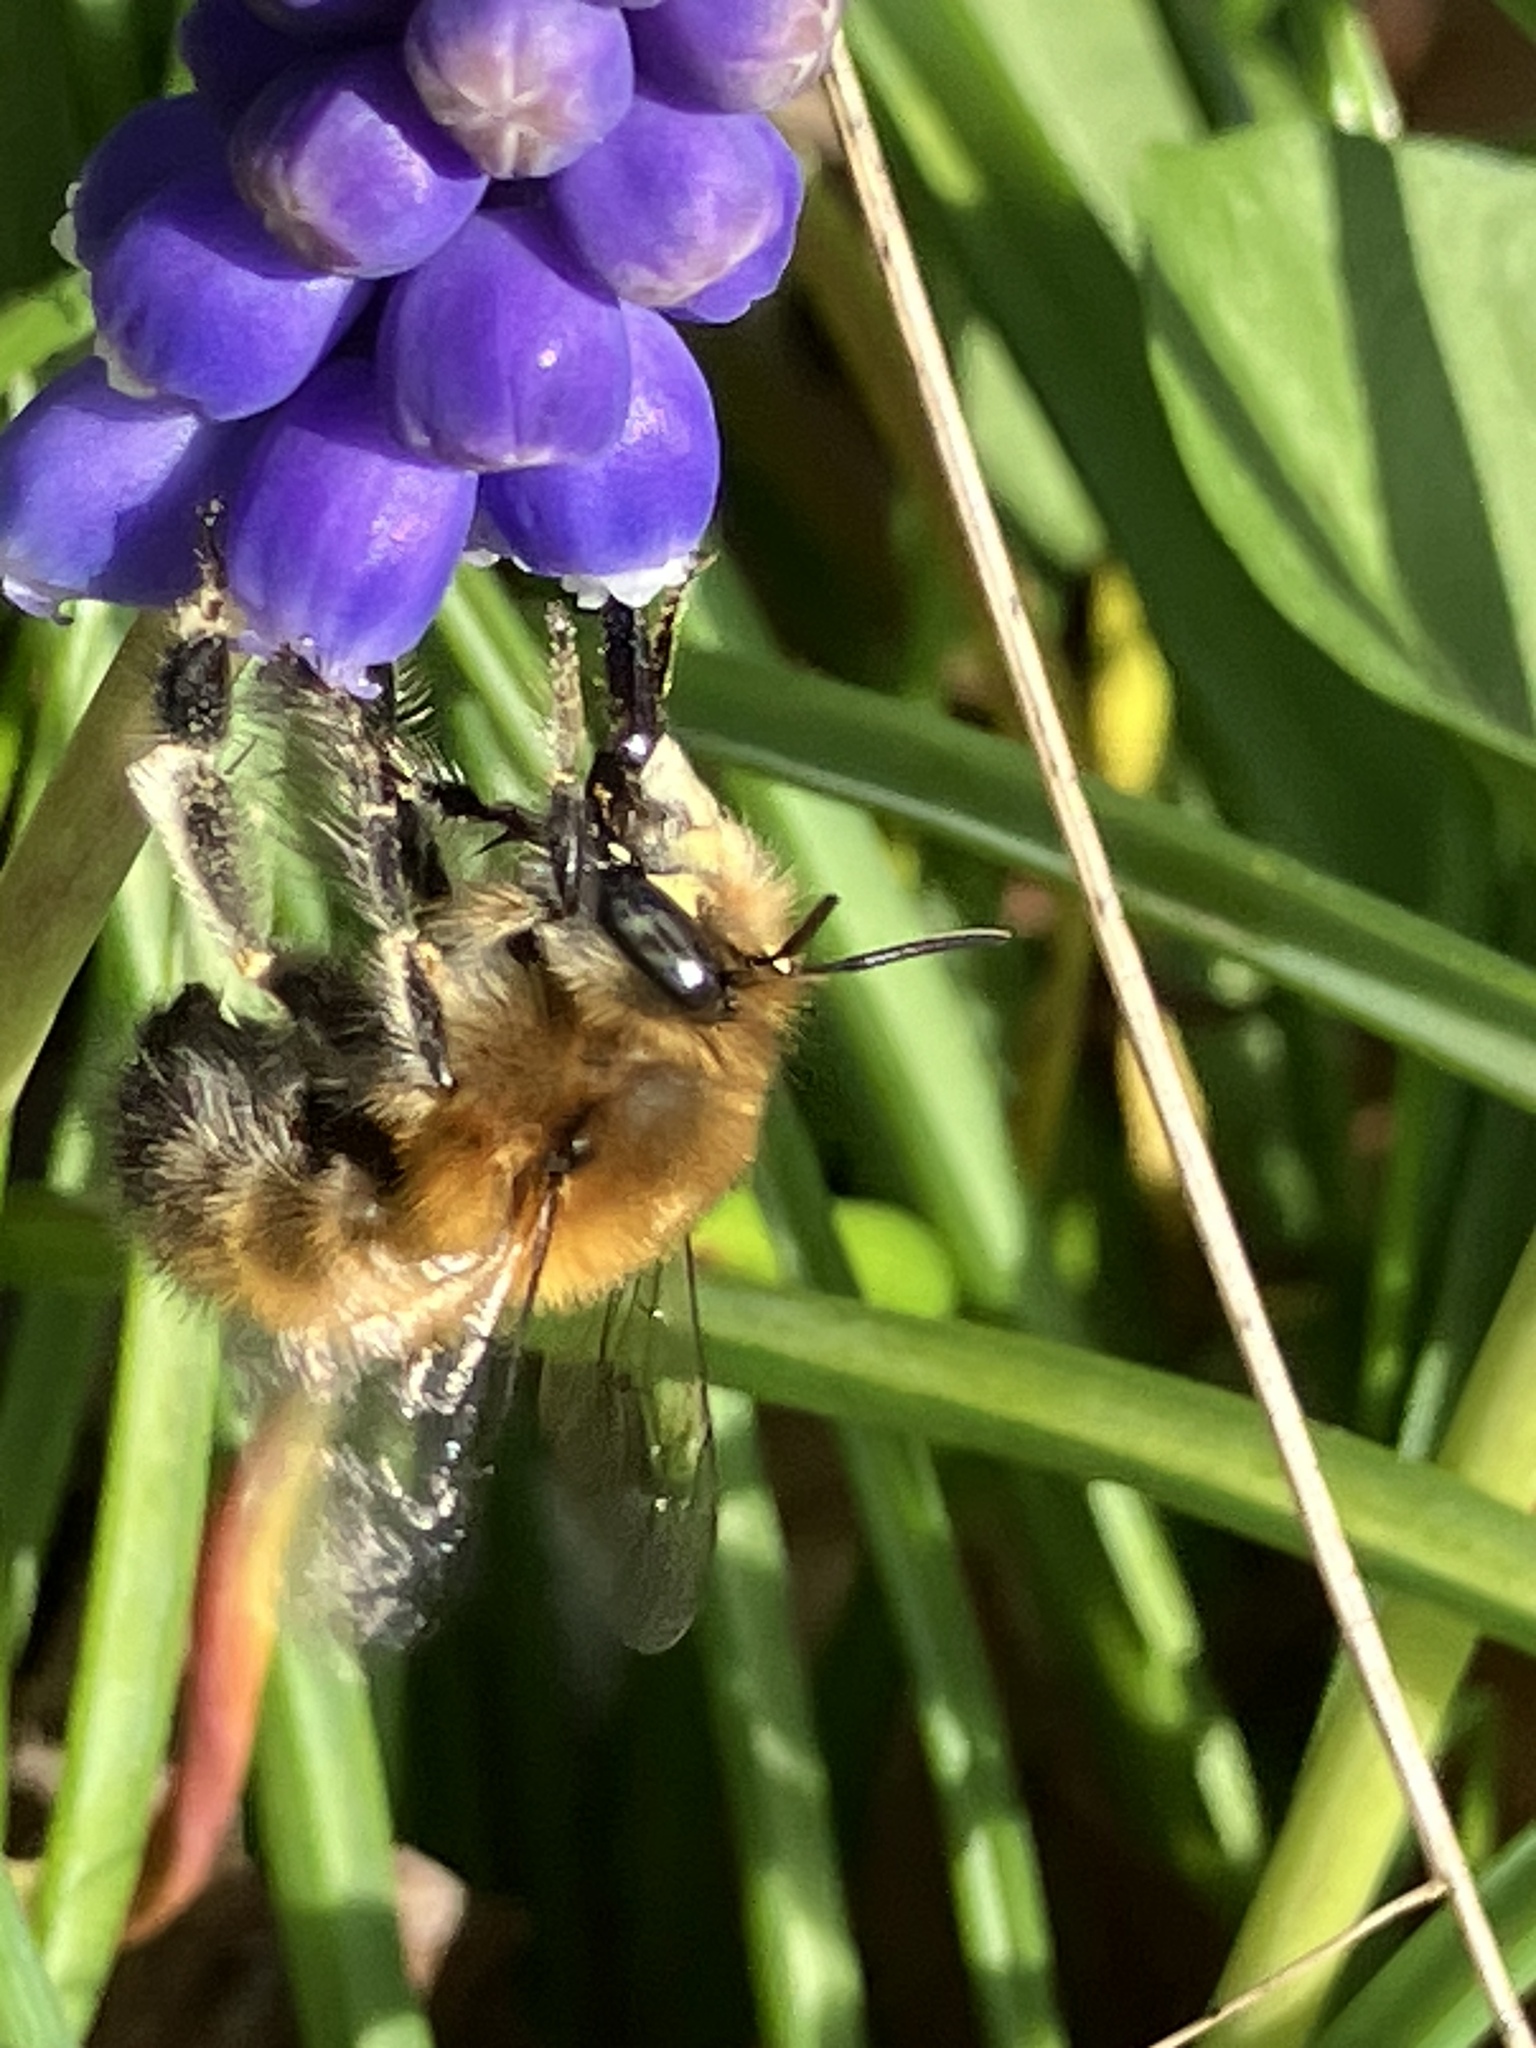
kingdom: Animalia
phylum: Arthropoda
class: Insecta
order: Hymenoptera
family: Apidae
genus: Anthophora
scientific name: Anthophora plumipes
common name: Hairy-footed flower bee
